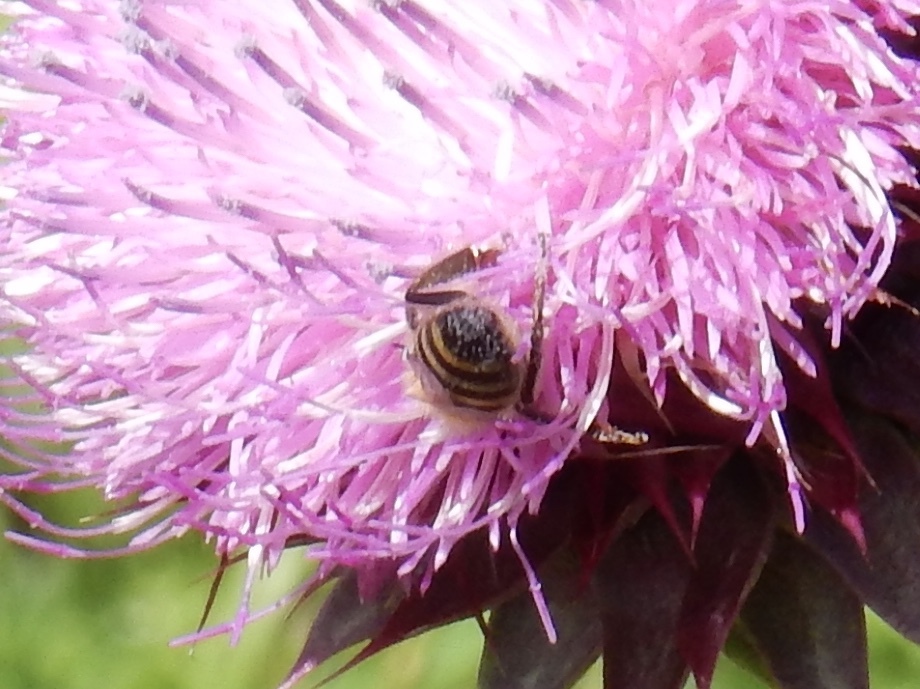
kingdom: Animalia
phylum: Arthropoda
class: Insecta
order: Hymenoptera
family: Apidae
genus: Apis
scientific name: Apis mellifera
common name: Honey bee
